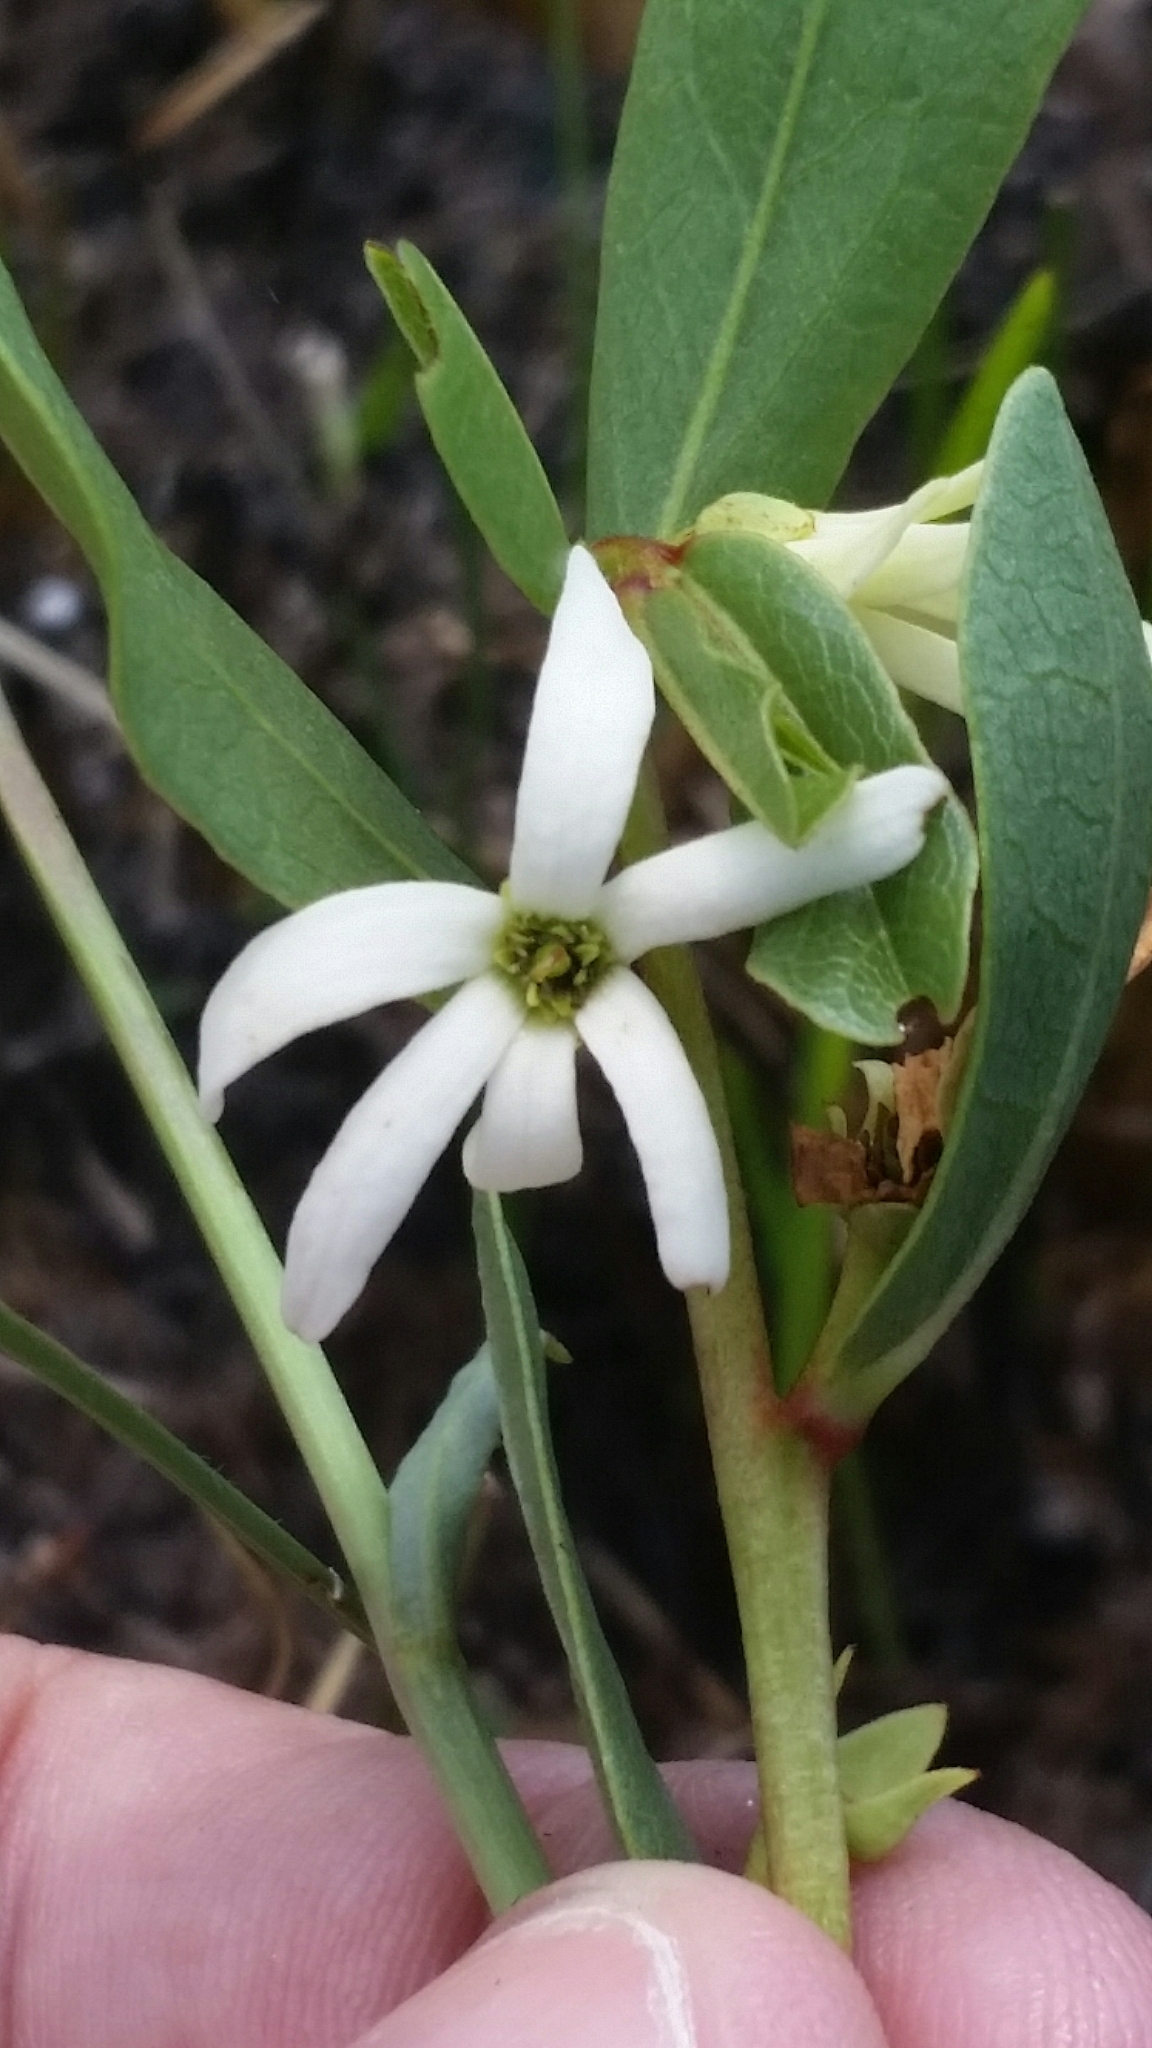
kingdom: Plantae
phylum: Tracheophyta
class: Magnoliopsida
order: Magnoliales
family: Annonaceae
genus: Asimina
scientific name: Asimina pulchella
